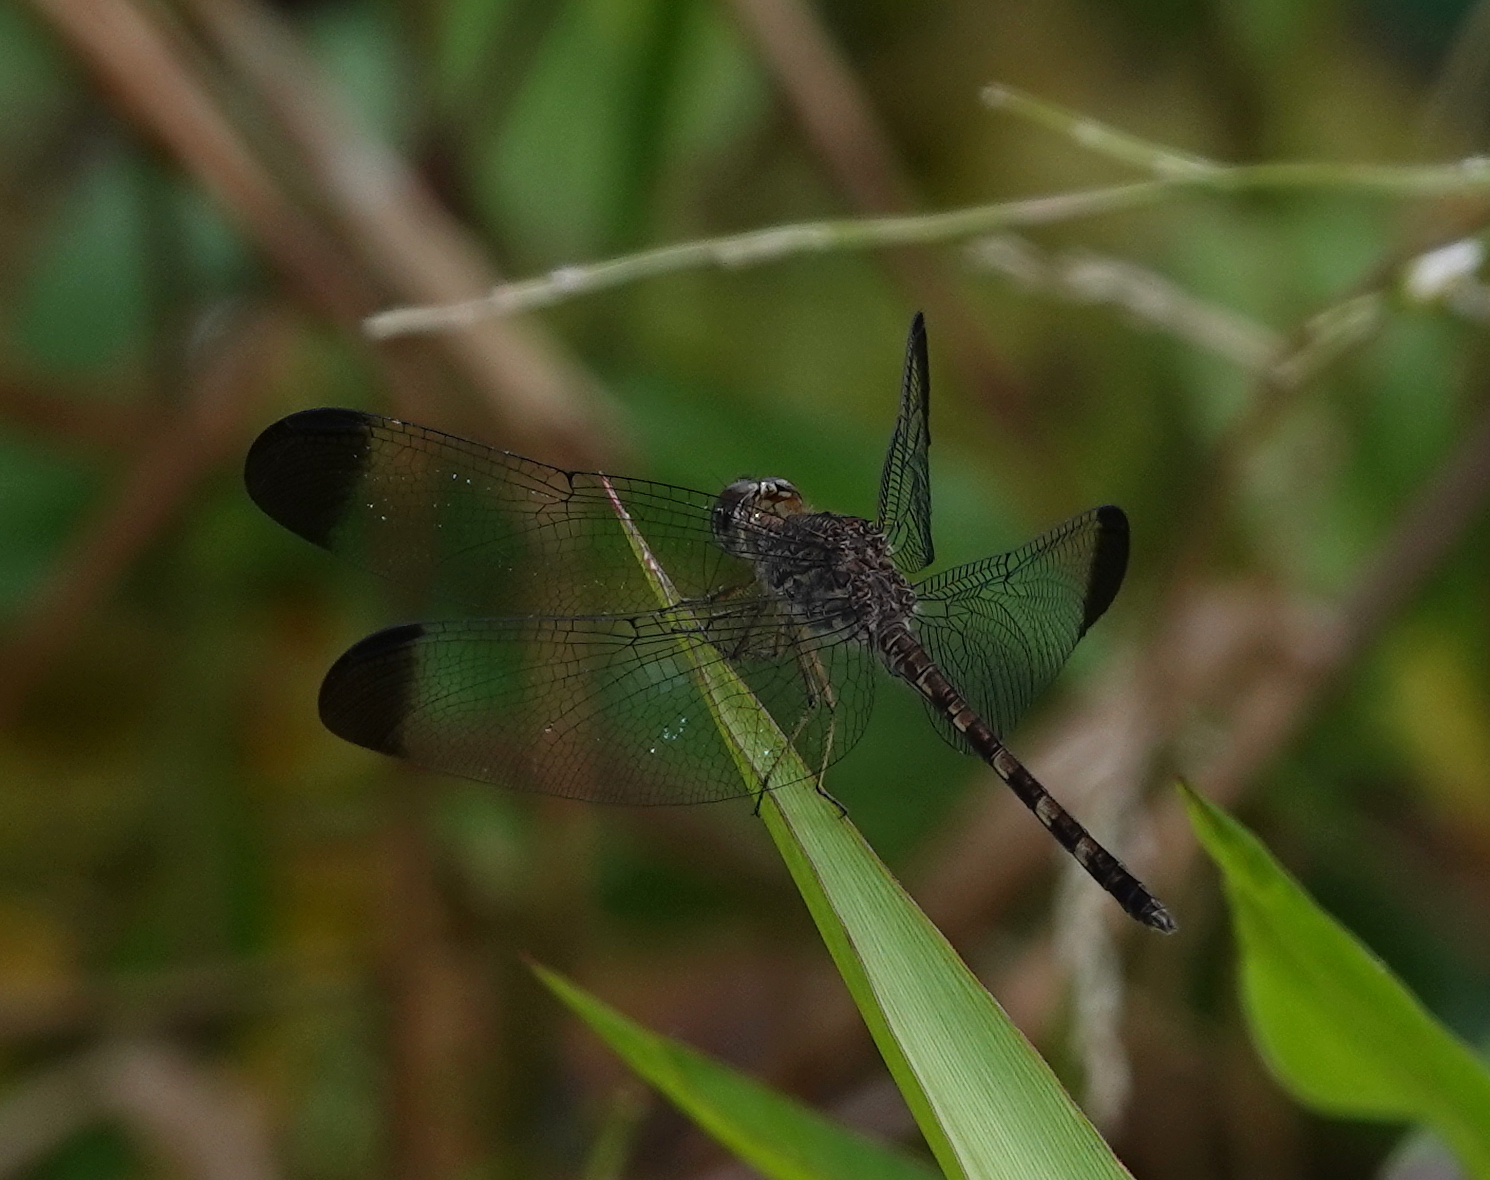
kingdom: Animalia
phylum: Arthropoda
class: Insecta
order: Odonata
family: Libellulidae
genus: Uracis
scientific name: Uracis imbuta
